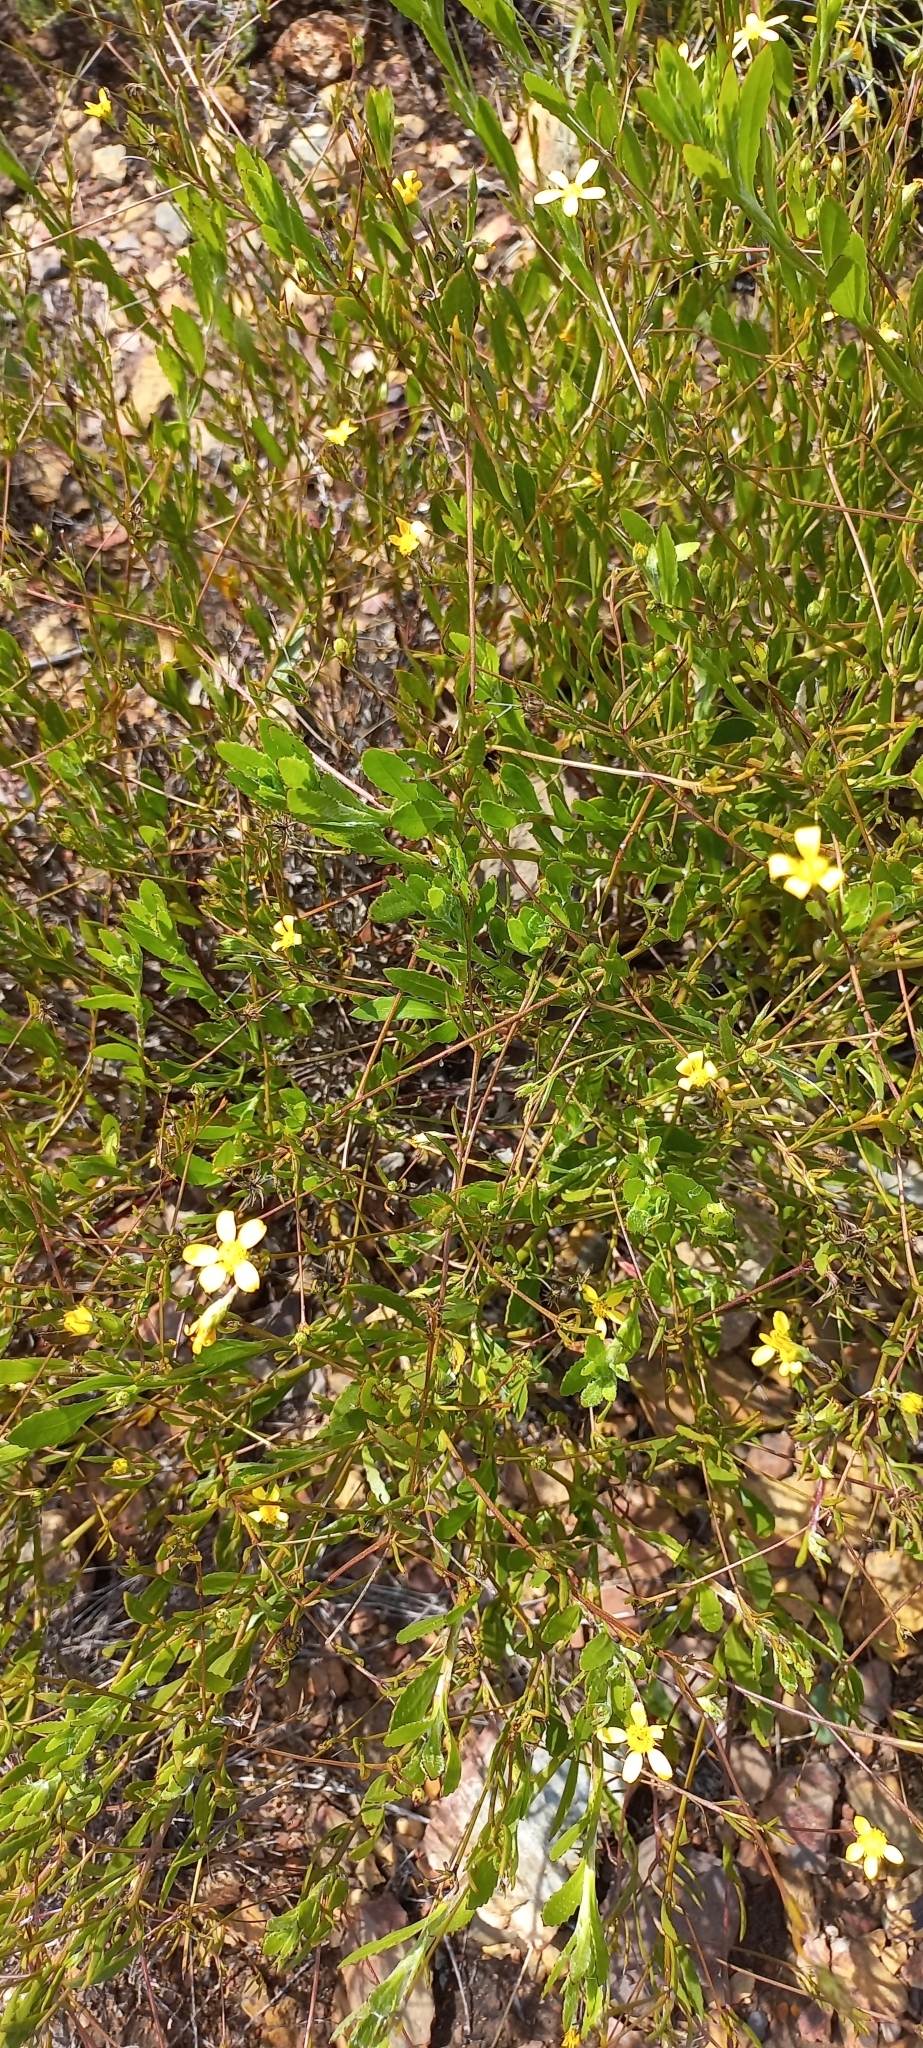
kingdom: Plantae
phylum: Tracheophyta
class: Magnoliopsida
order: Asterales
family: Asteraceae
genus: Osteospermum
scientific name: Osteospermum ciliatum
